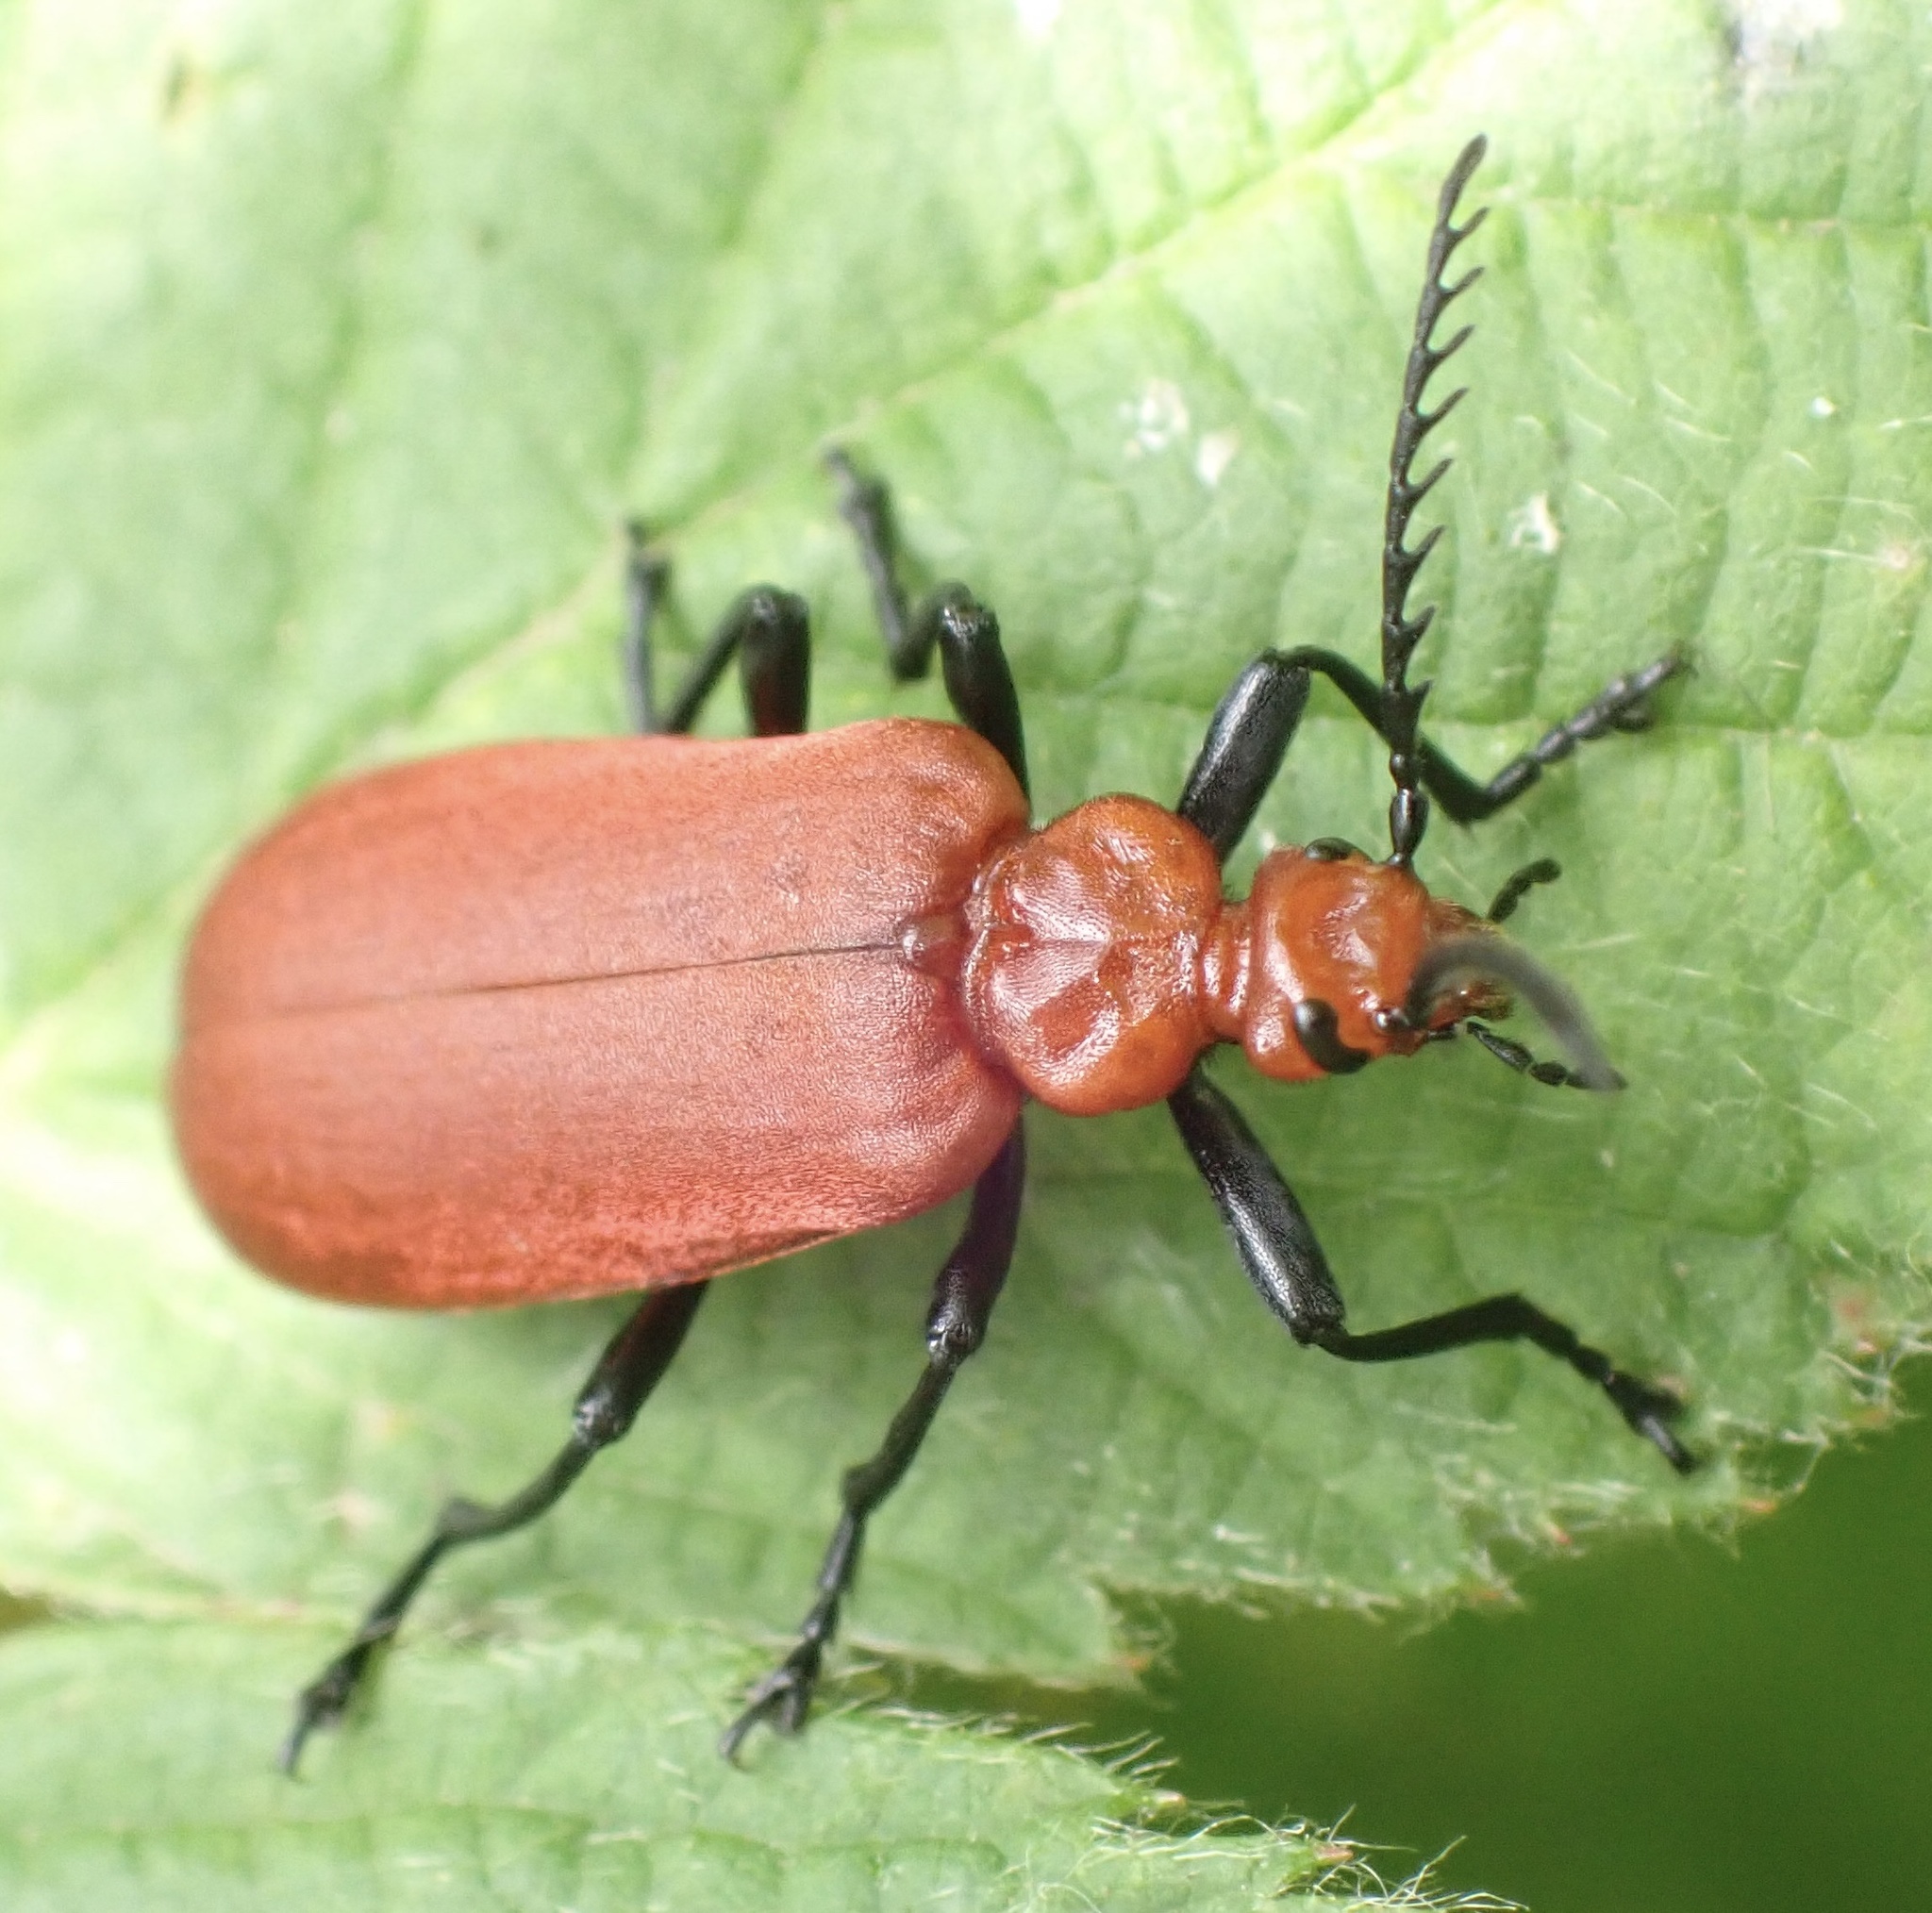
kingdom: Animalia
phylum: Arthropoda
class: Insecta
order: Coleoptera
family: Pyrochroidae
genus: Pyrochroa
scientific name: Pyrochroa serraticornis
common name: Red-headed cardinal beetle
